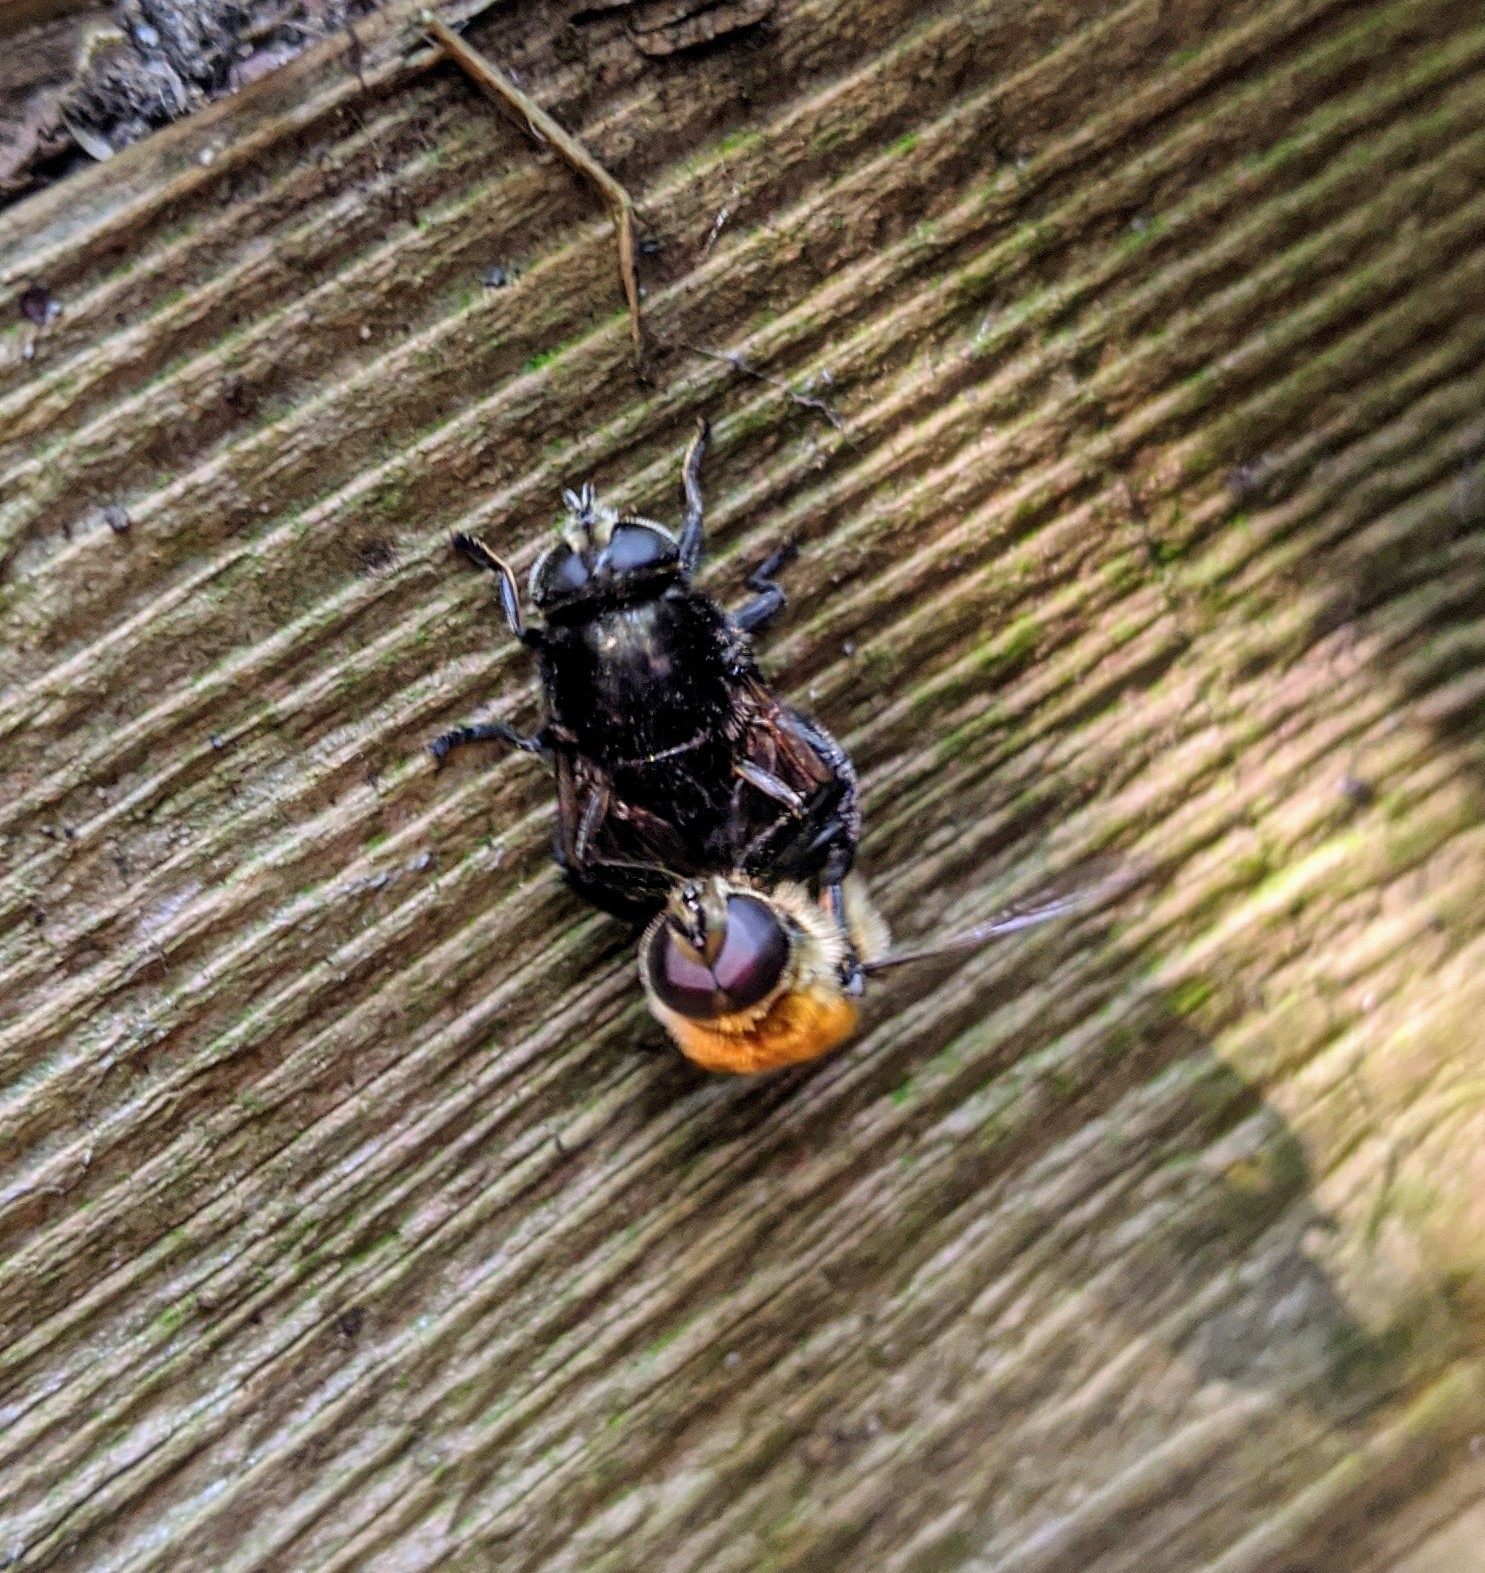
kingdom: Animalia
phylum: Arthropoda
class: Insecta
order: Diptera
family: Syrphidae
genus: Merodon
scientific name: Merodon equestris
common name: Greater bulb-fly
